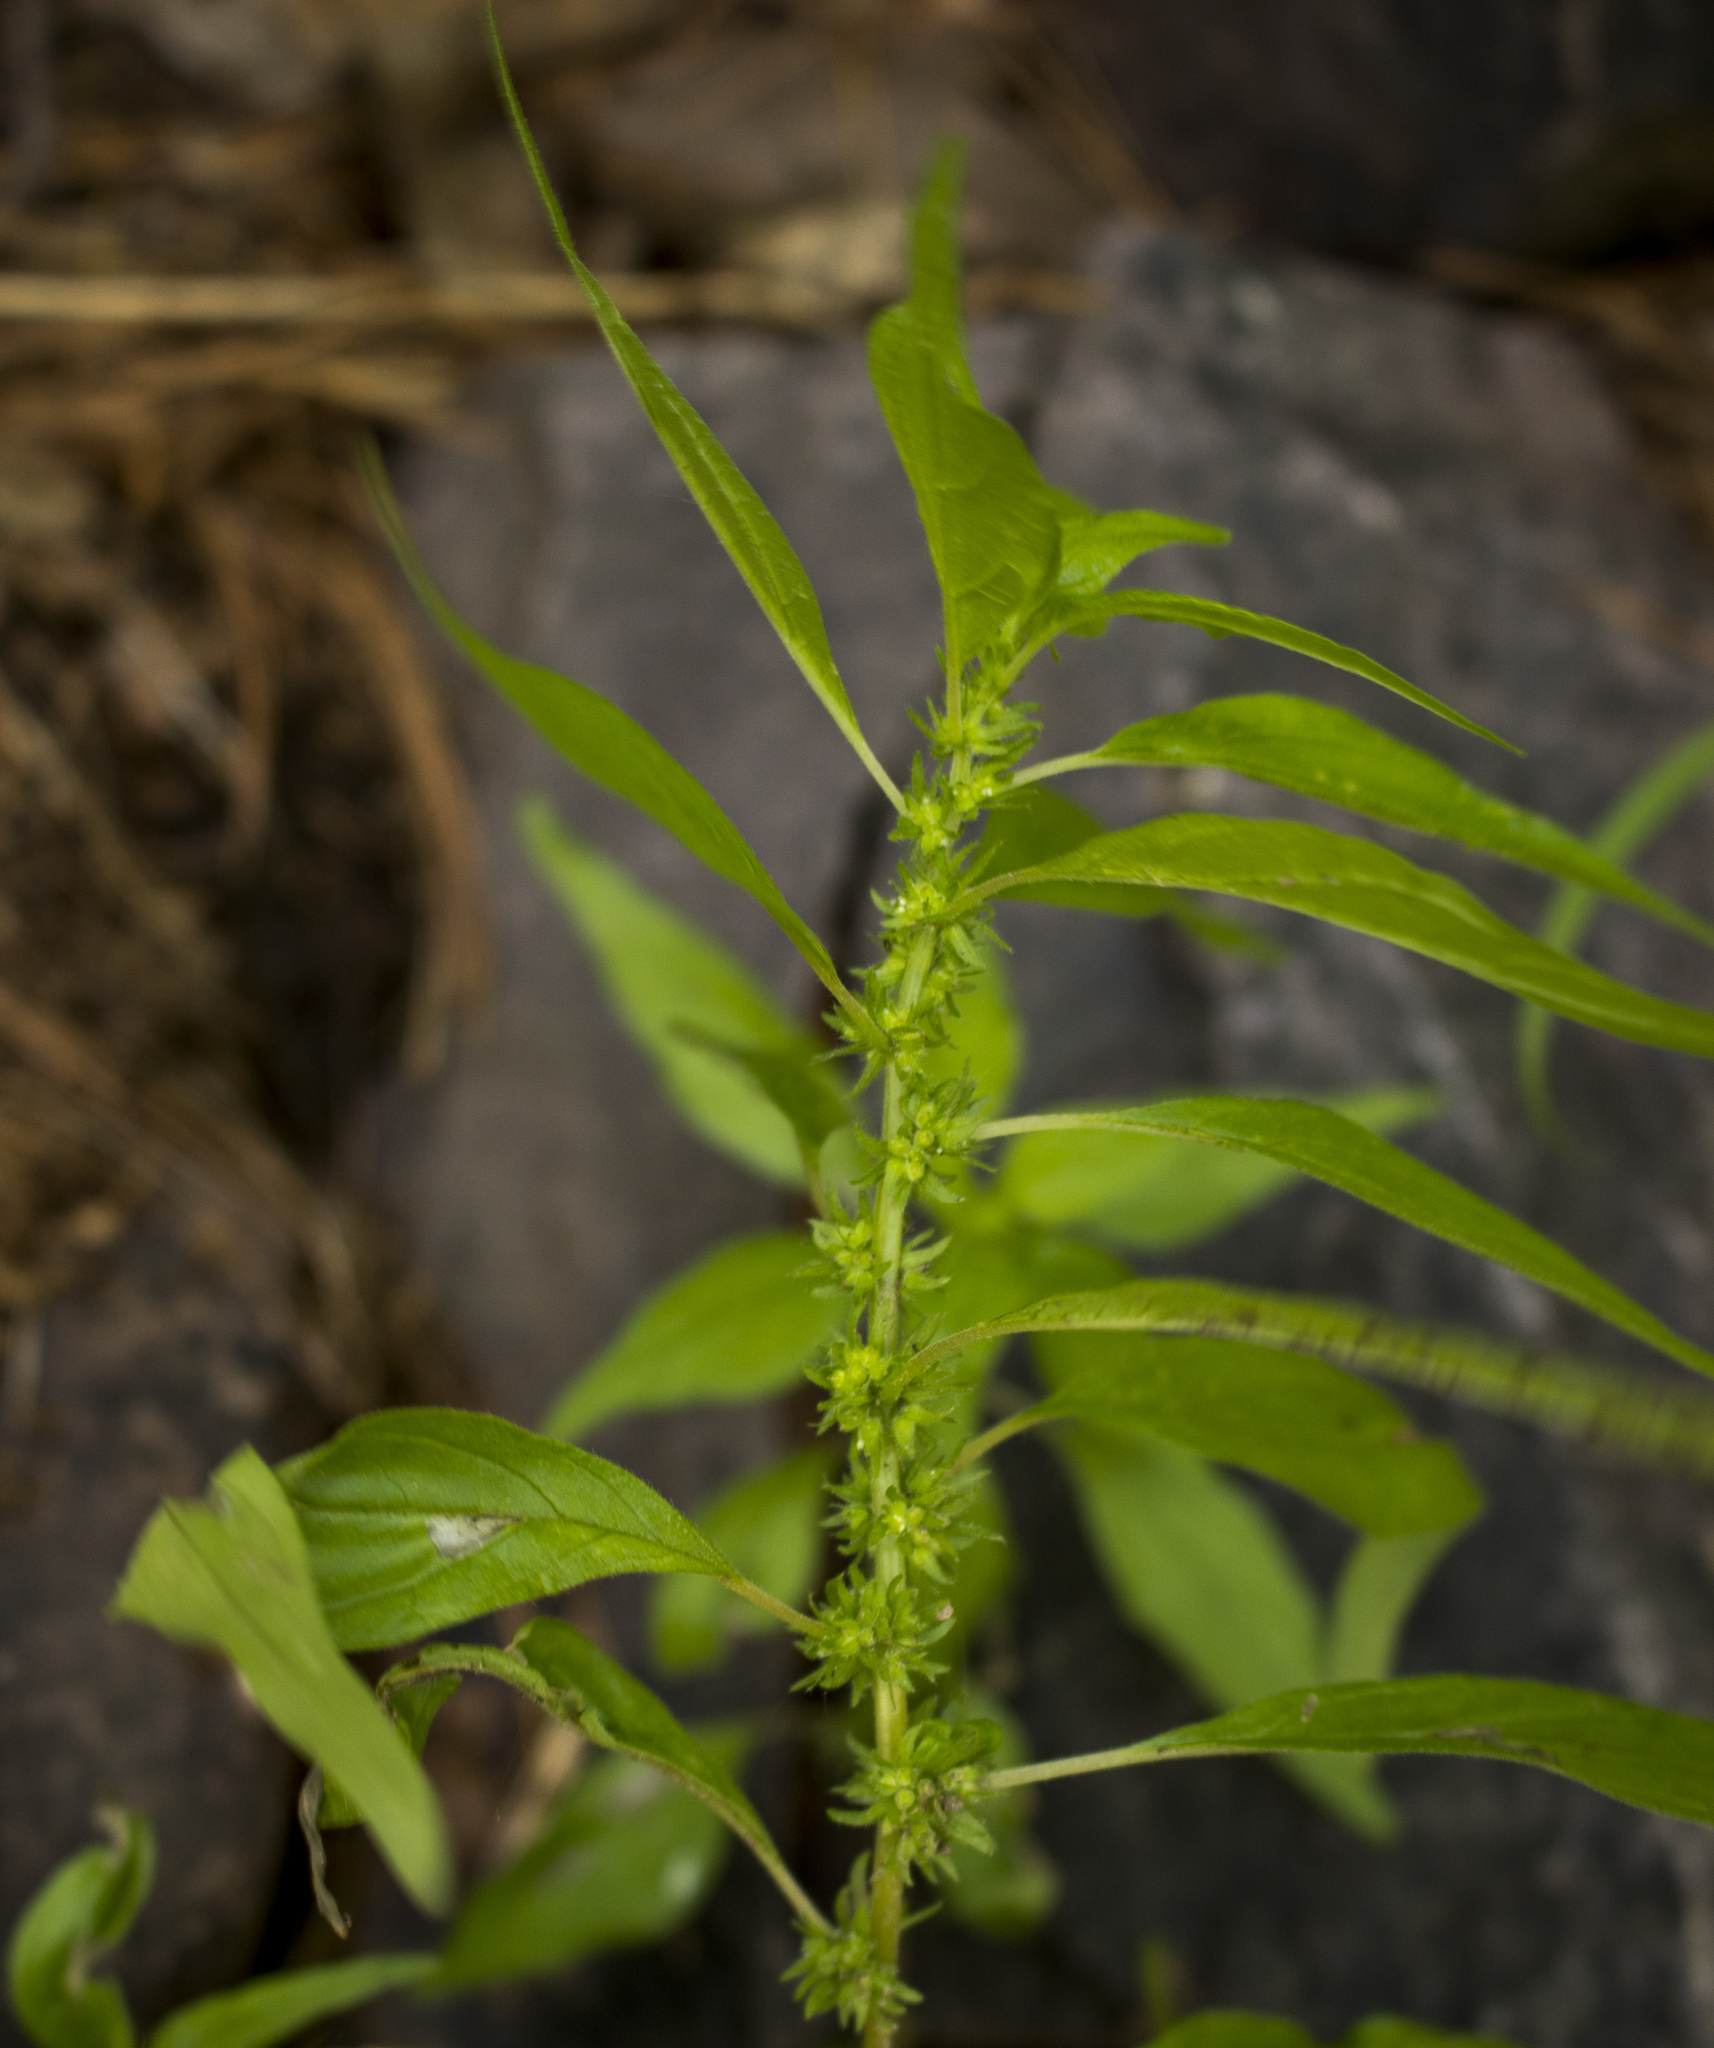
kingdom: Plantae
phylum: Tracheophyta
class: Magnoliopsida
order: Rosales
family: Urticaceae
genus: Parietaria
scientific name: Parietaria pensylvanica
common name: Pennsylvania pellitory
